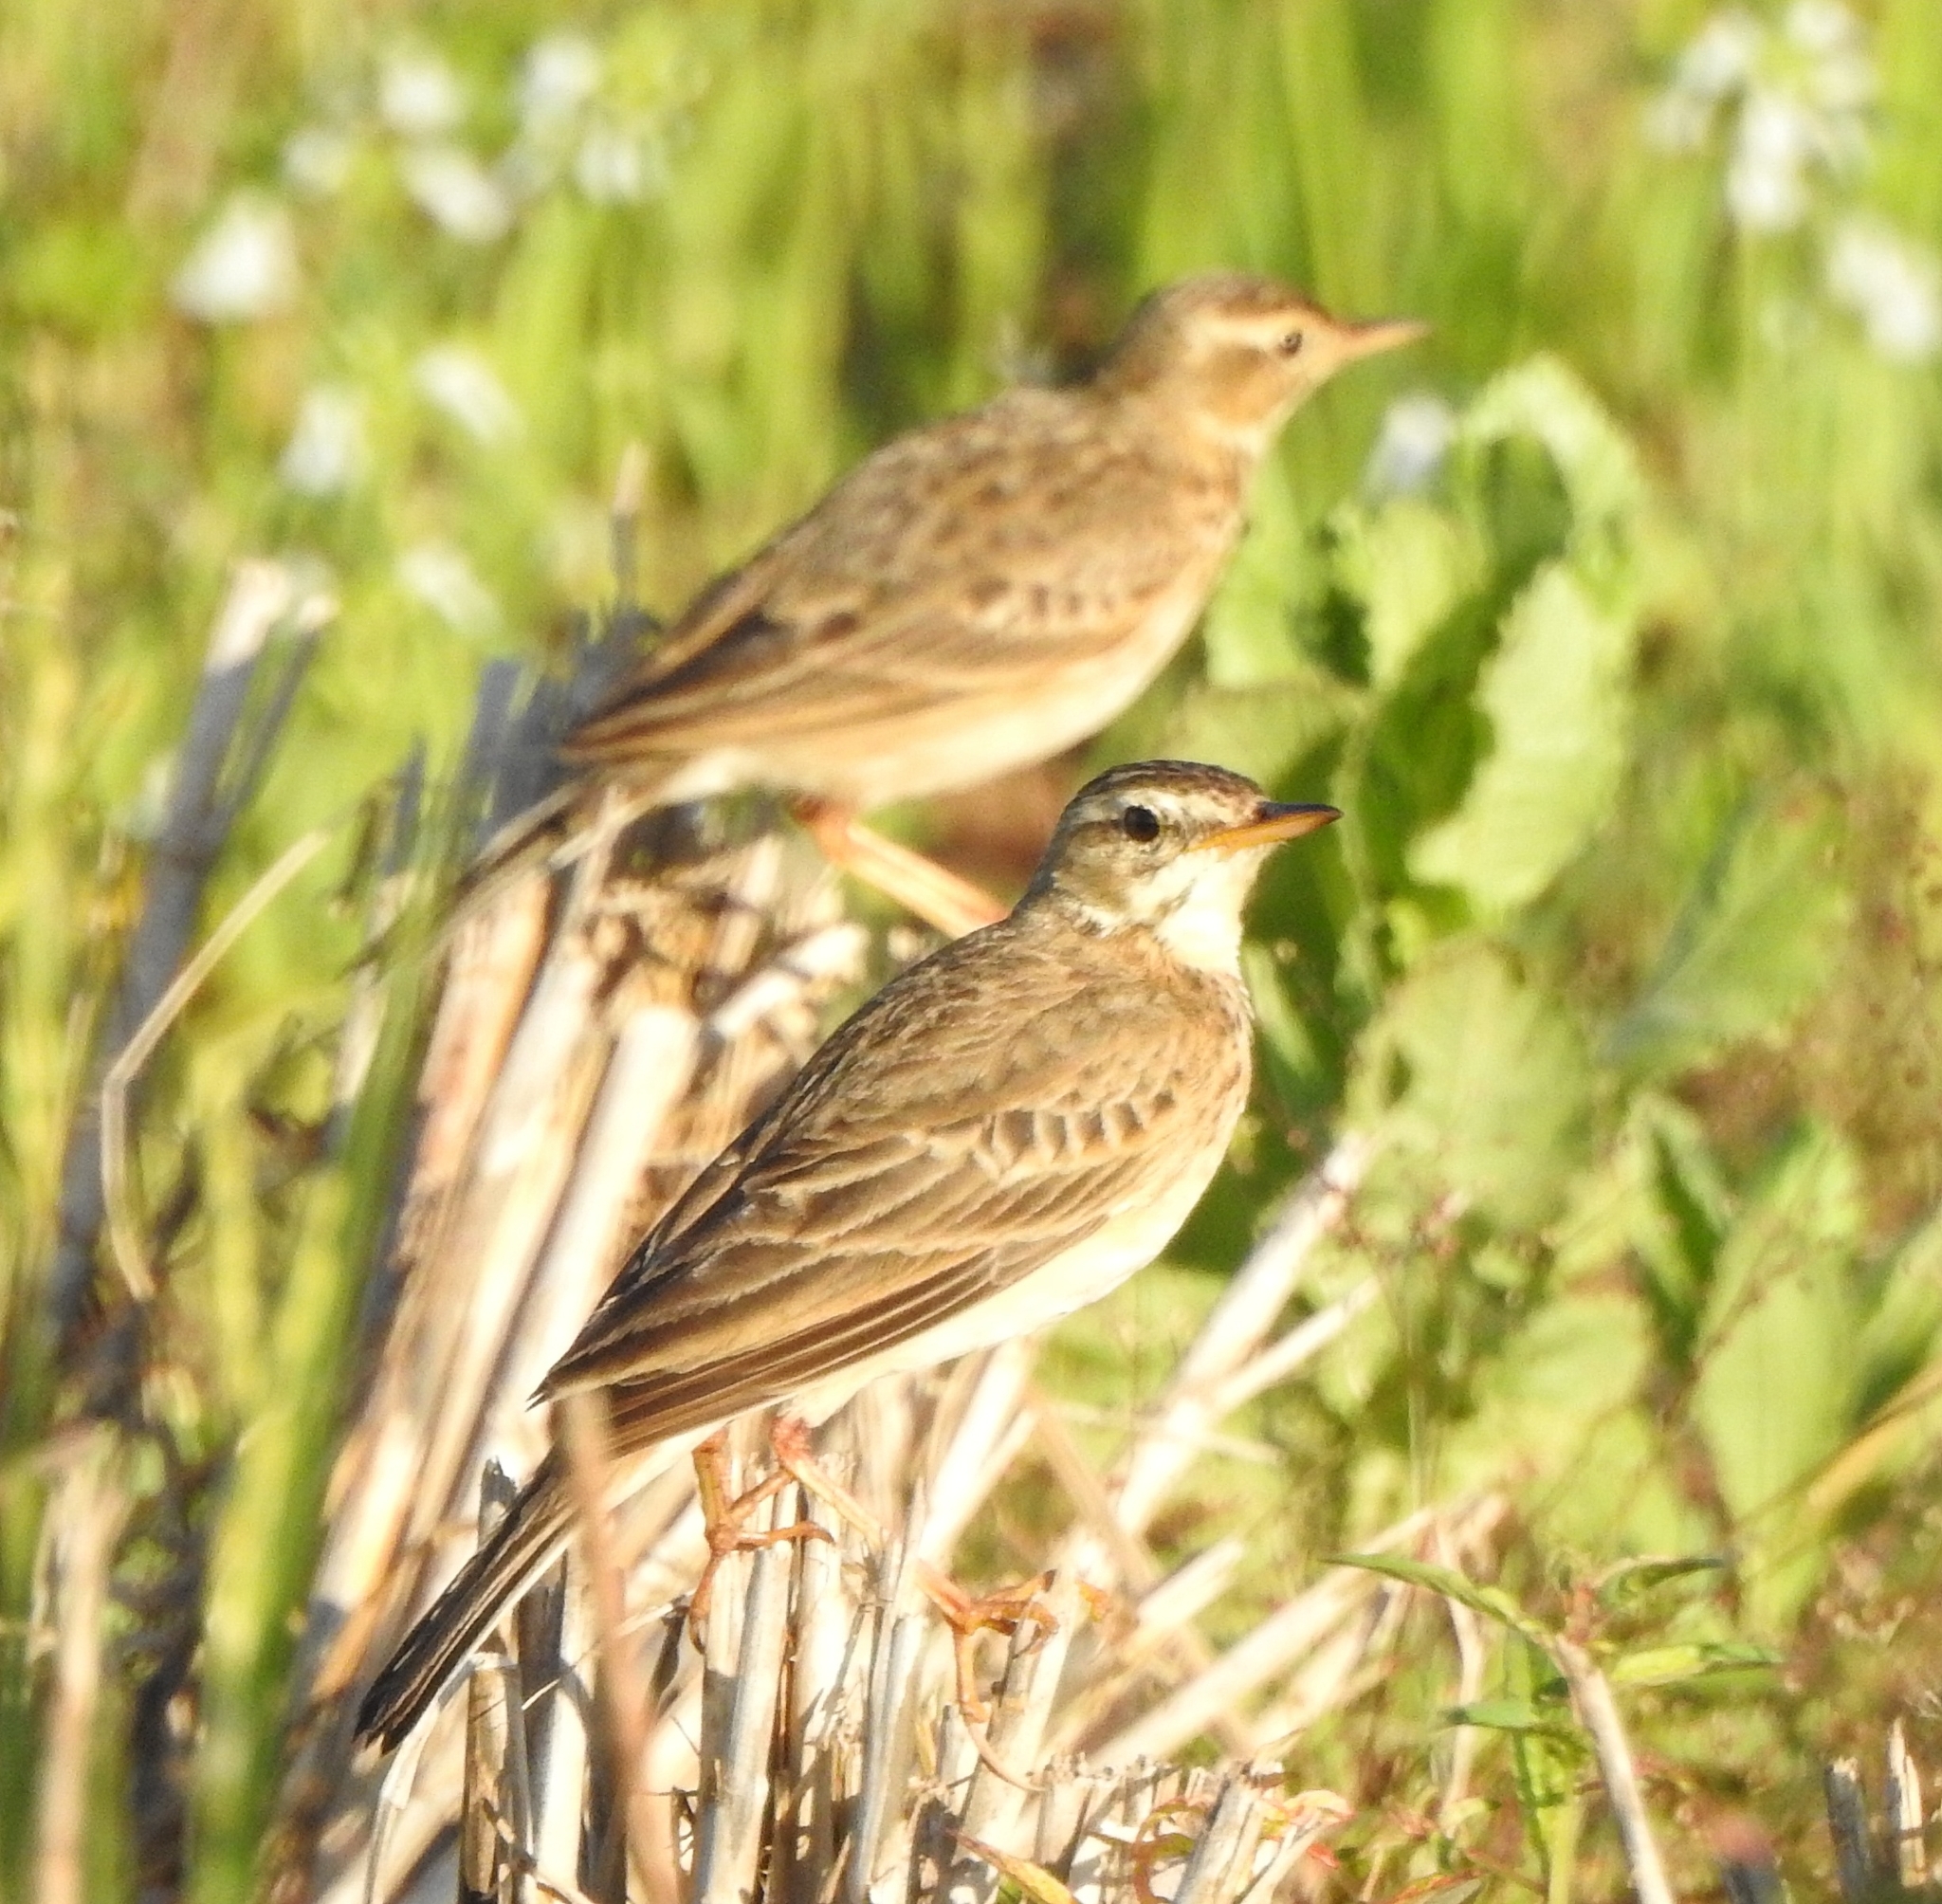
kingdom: Animalia
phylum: Chordata
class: Aves
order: Passeriformes
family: Motacillidae
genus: Anthus
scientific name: Anthus rufulus
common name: Paddyfield pipit
